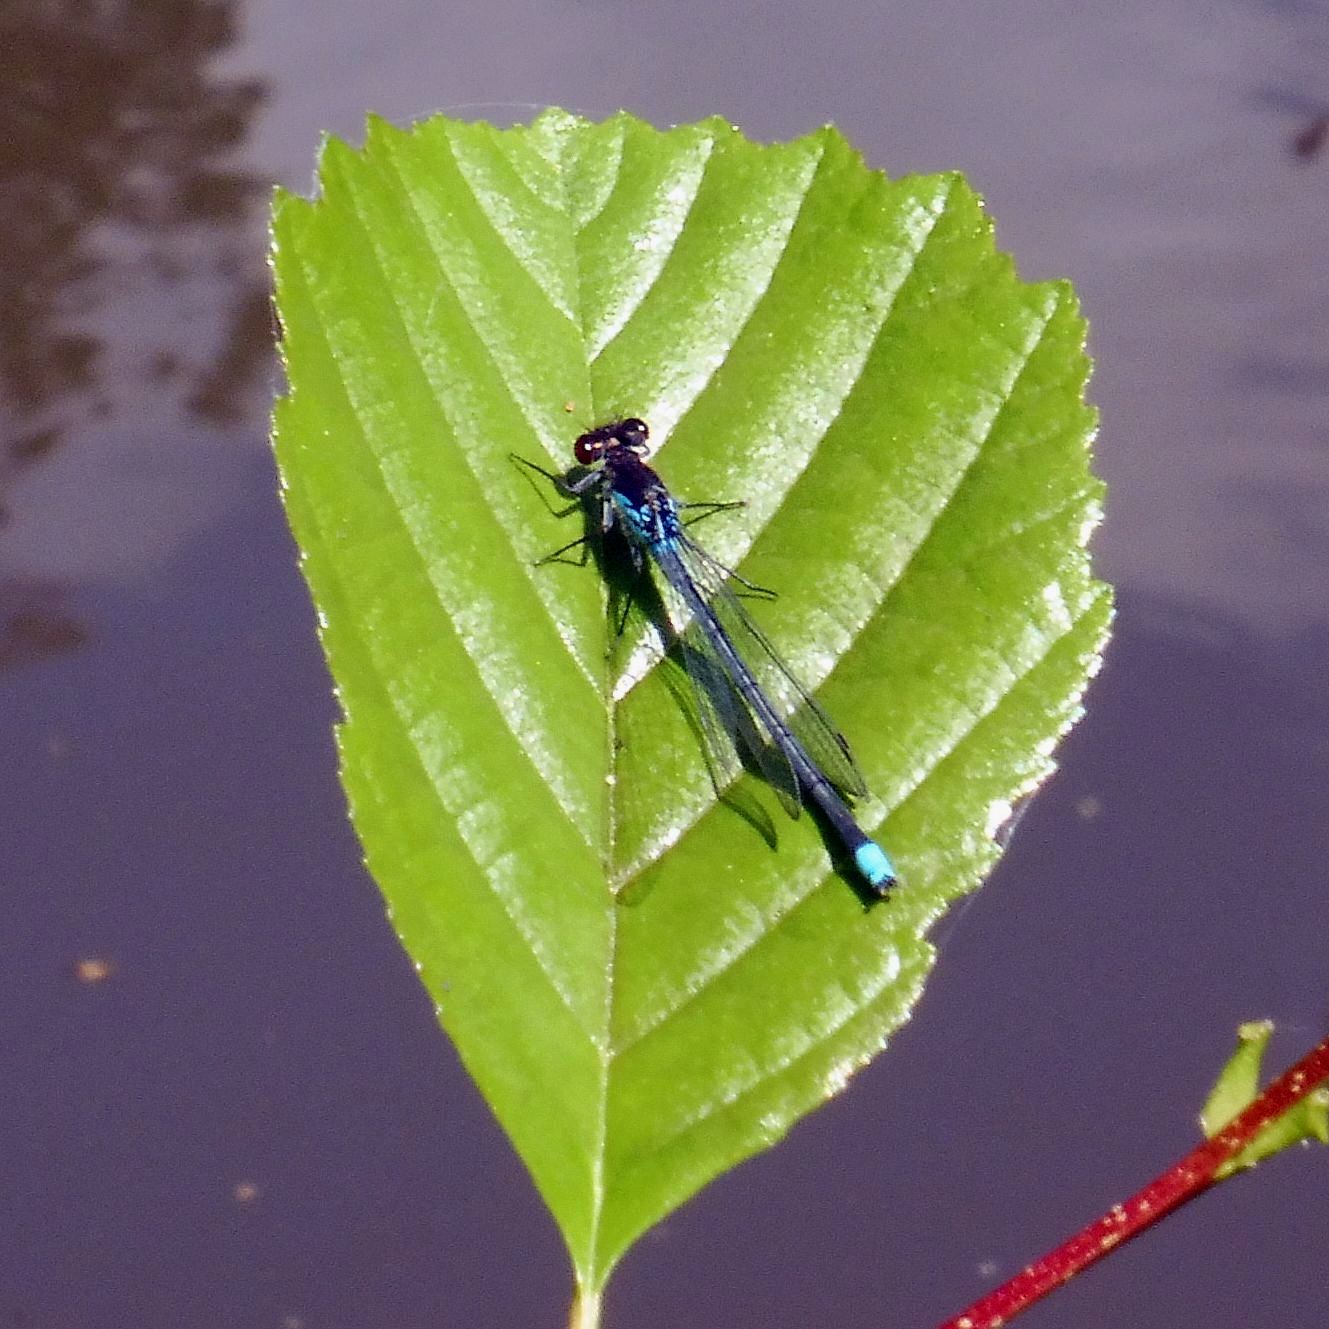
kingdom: Animalia
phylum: Arthropoda
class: Insecta
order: Odonata
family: Coenagrionidae
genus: Erythromma
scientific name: Erythromma najas
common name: Red-eyed damselfly
